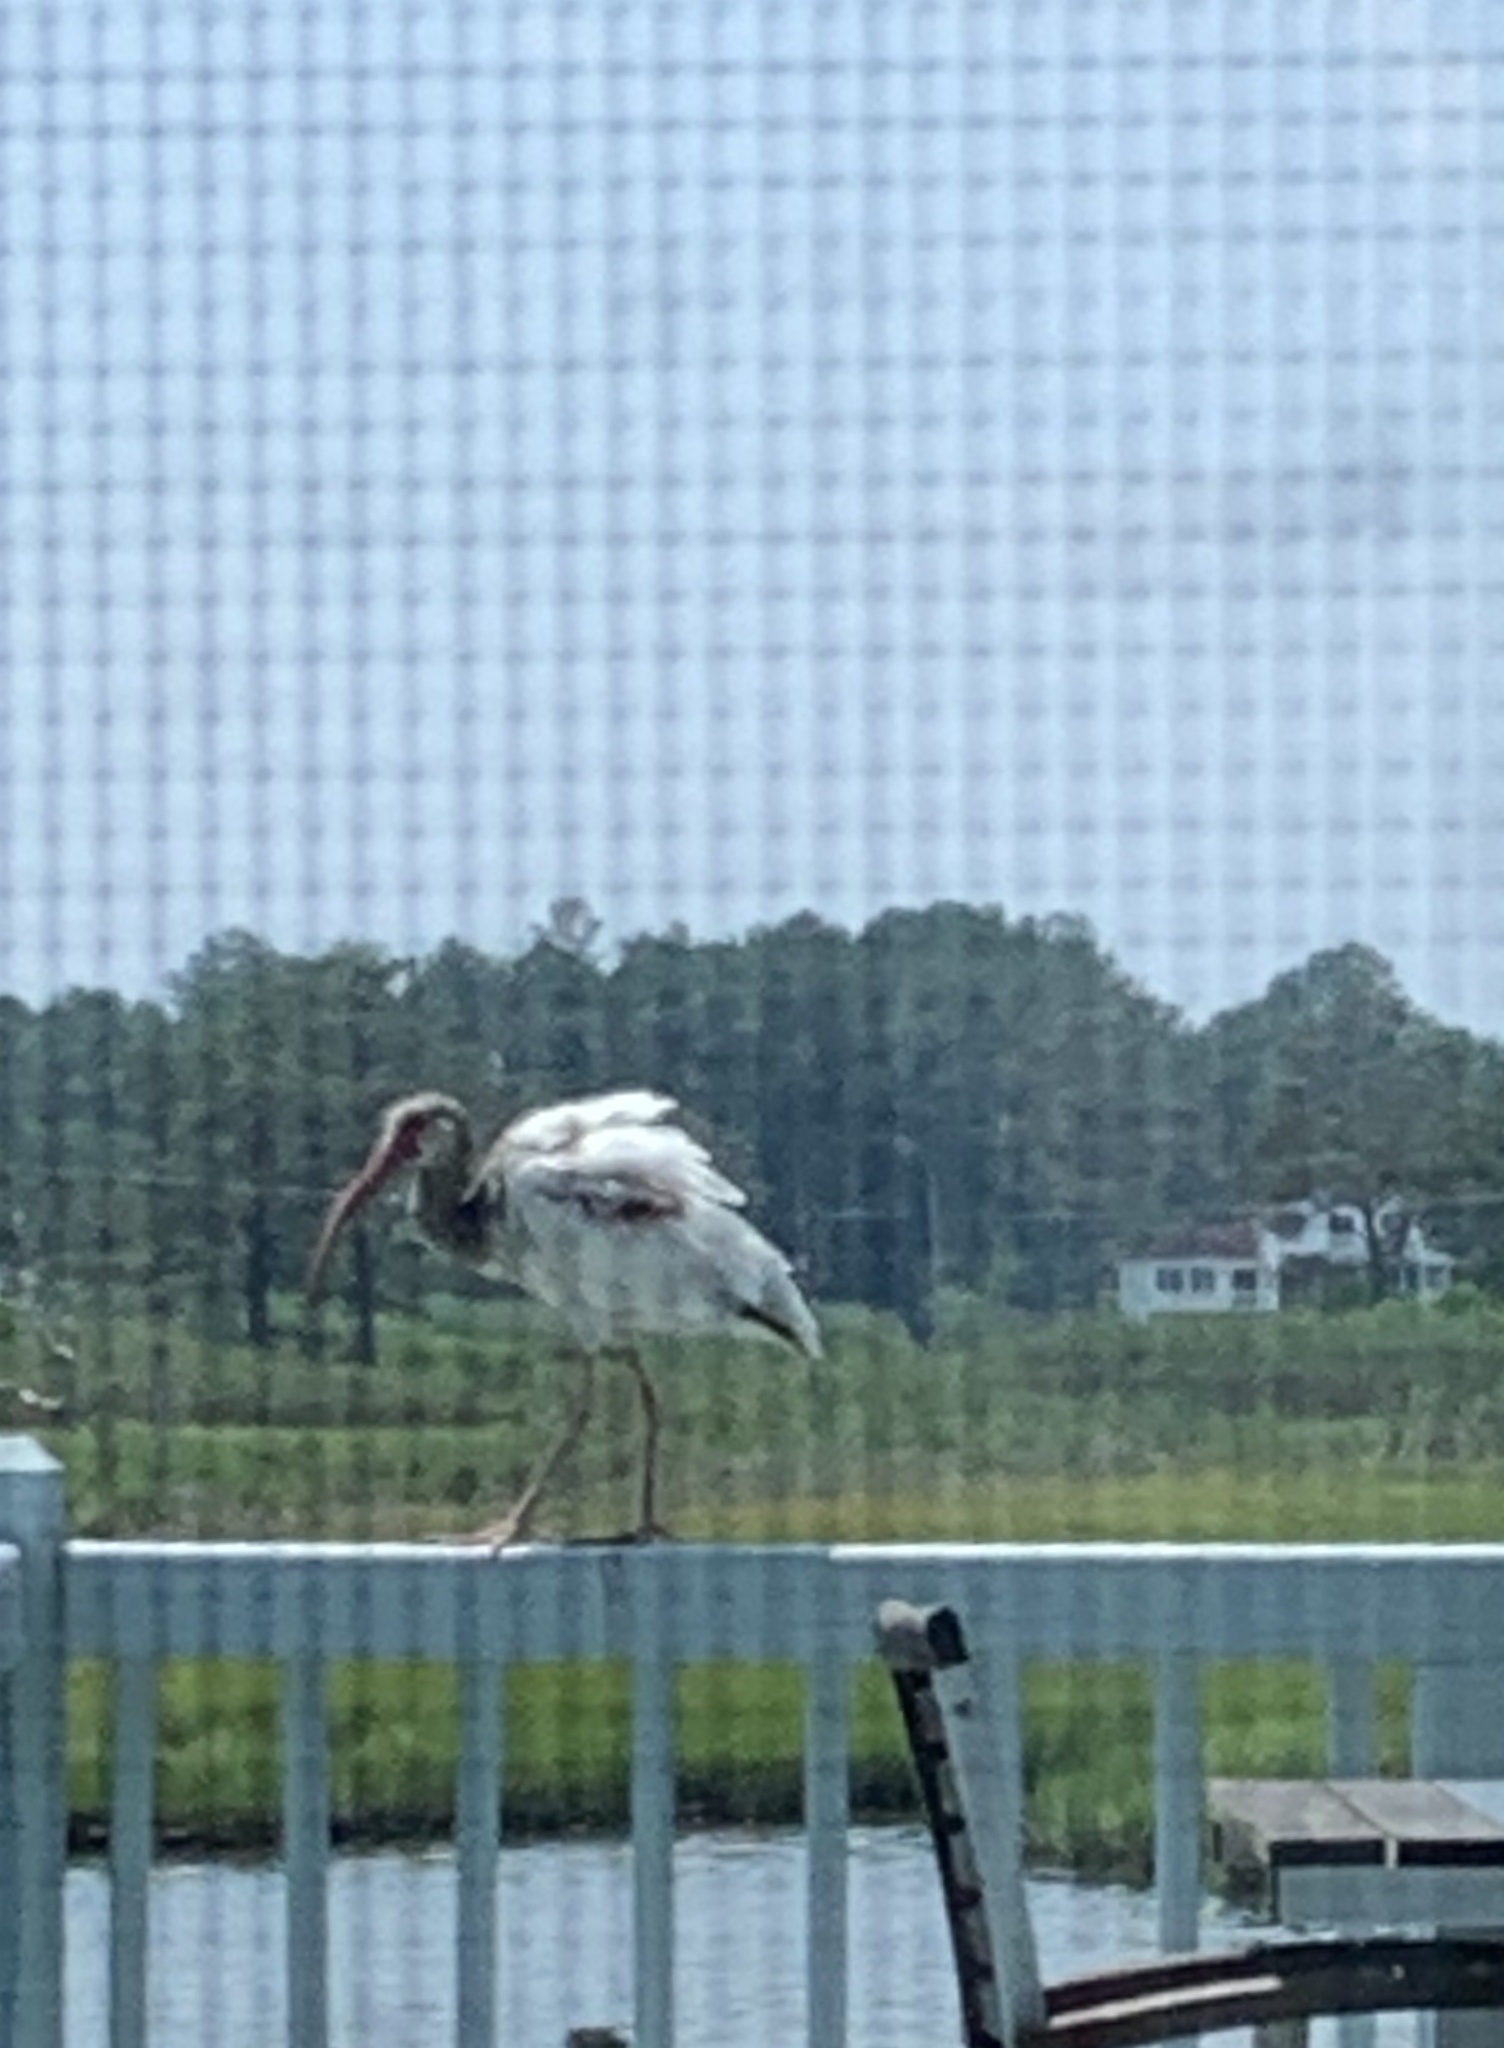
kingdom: Animalia
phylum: Chordata
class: Aves
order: Pelecaniformes
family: Threskiornithidae
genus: Eudocimus
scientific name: Eudocimus albus
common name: White ibis
